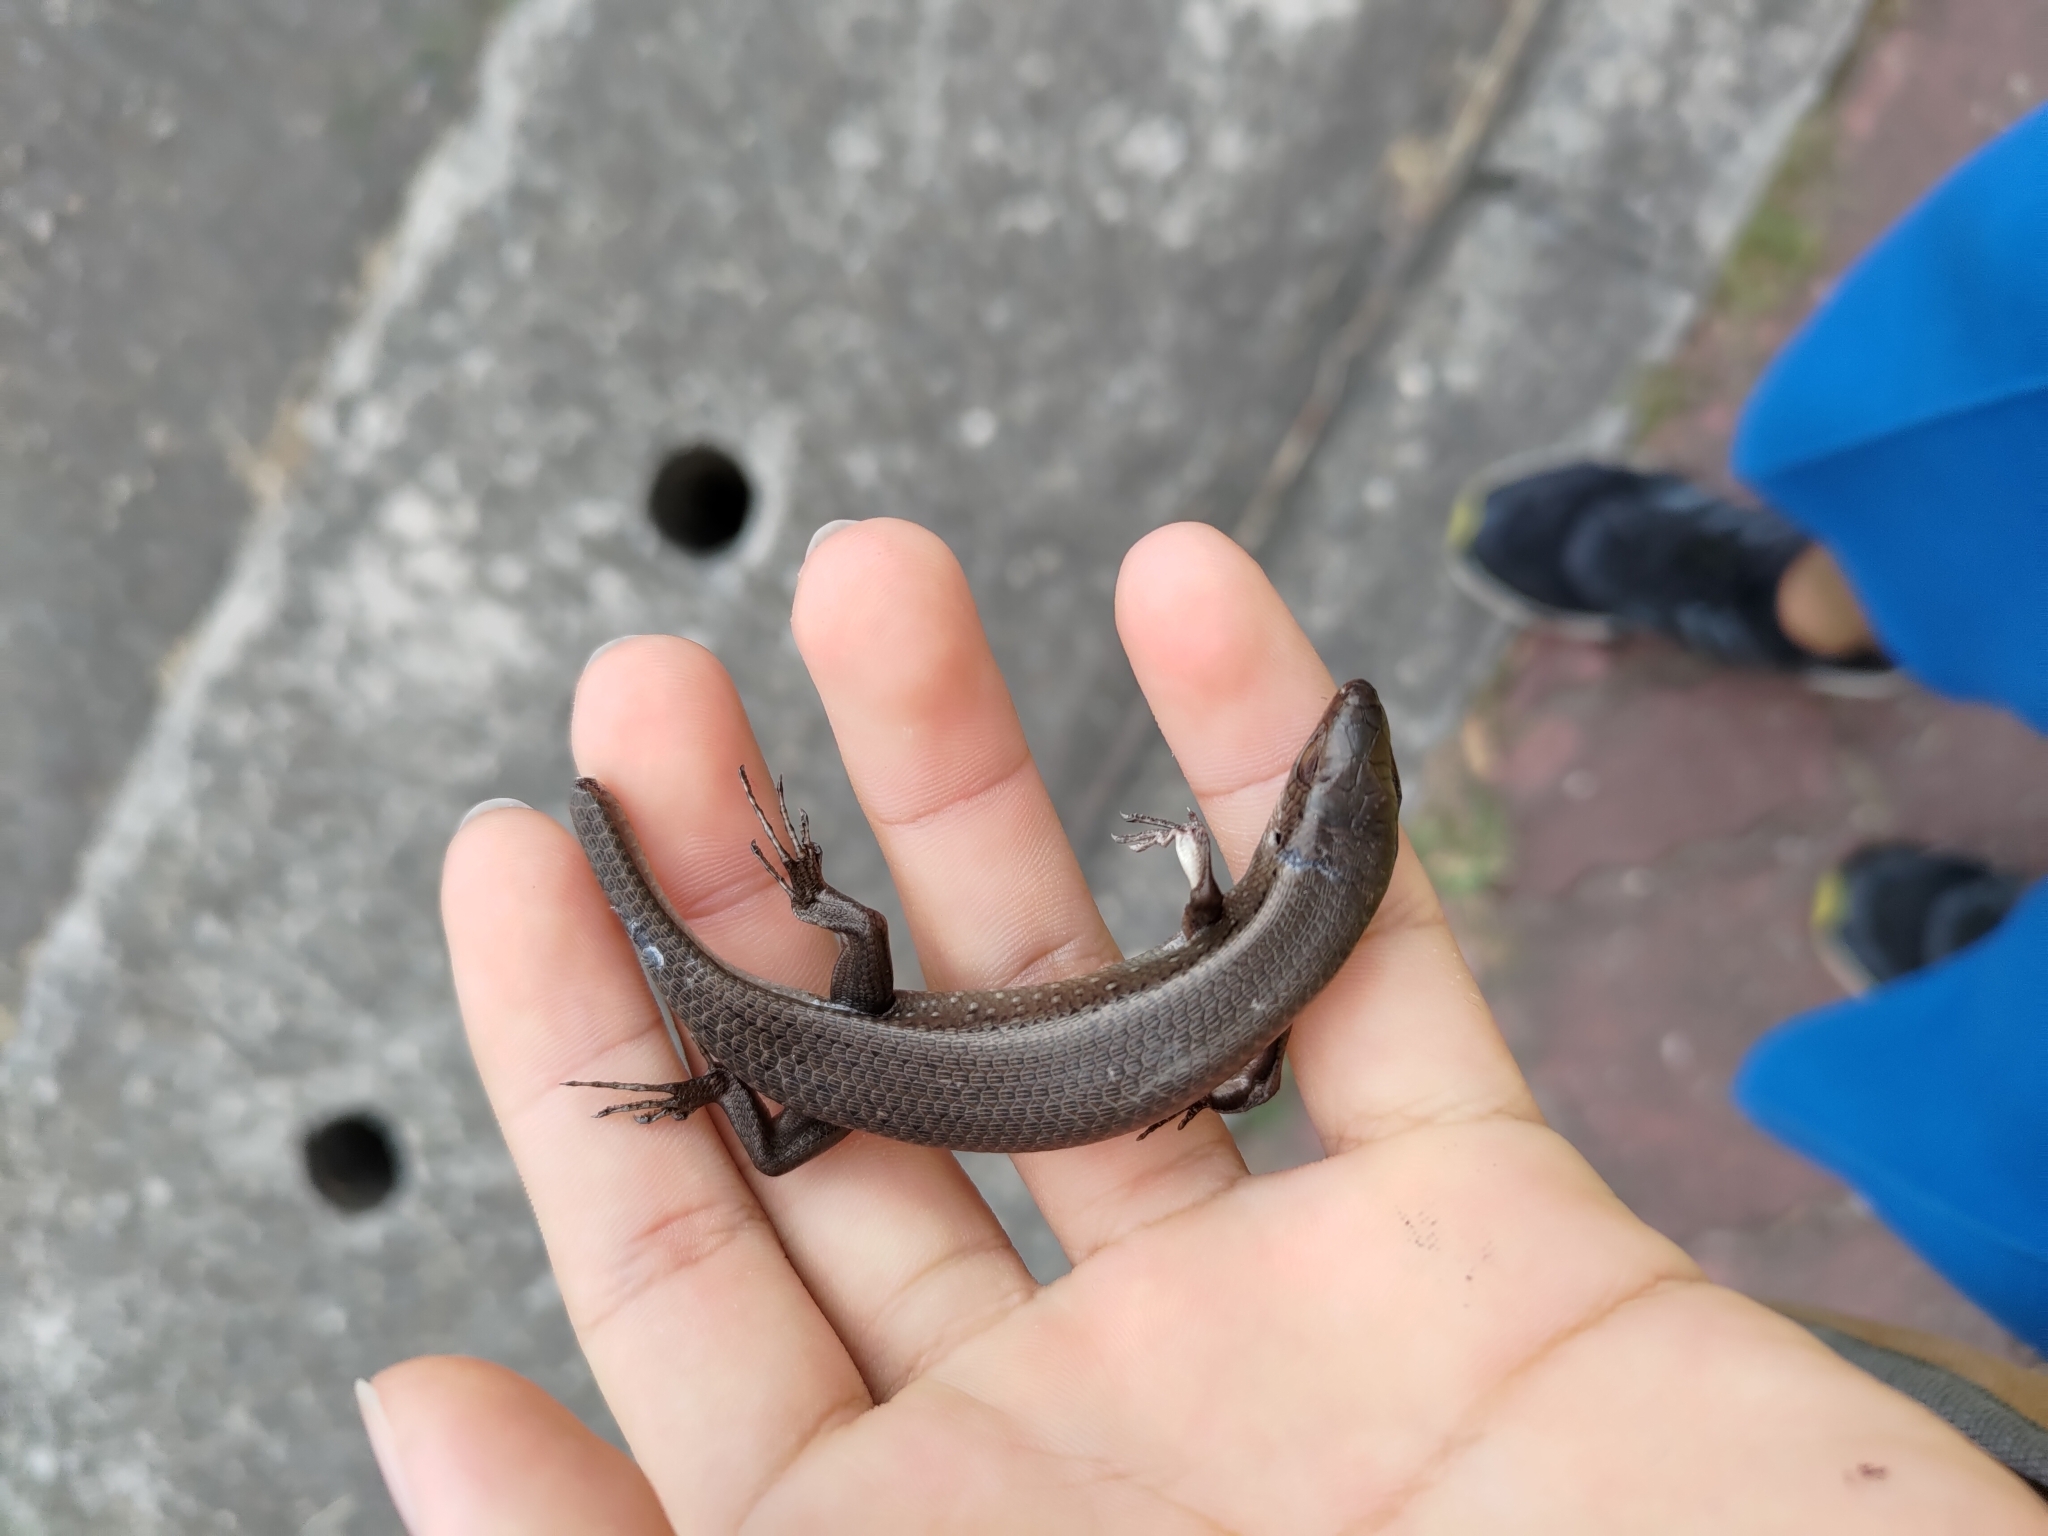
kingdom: Animalia
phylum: Chordata
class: Squamata
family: Scincidae
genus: Eutropis
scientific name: Eutropis multifasciata
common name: Common mabuya
